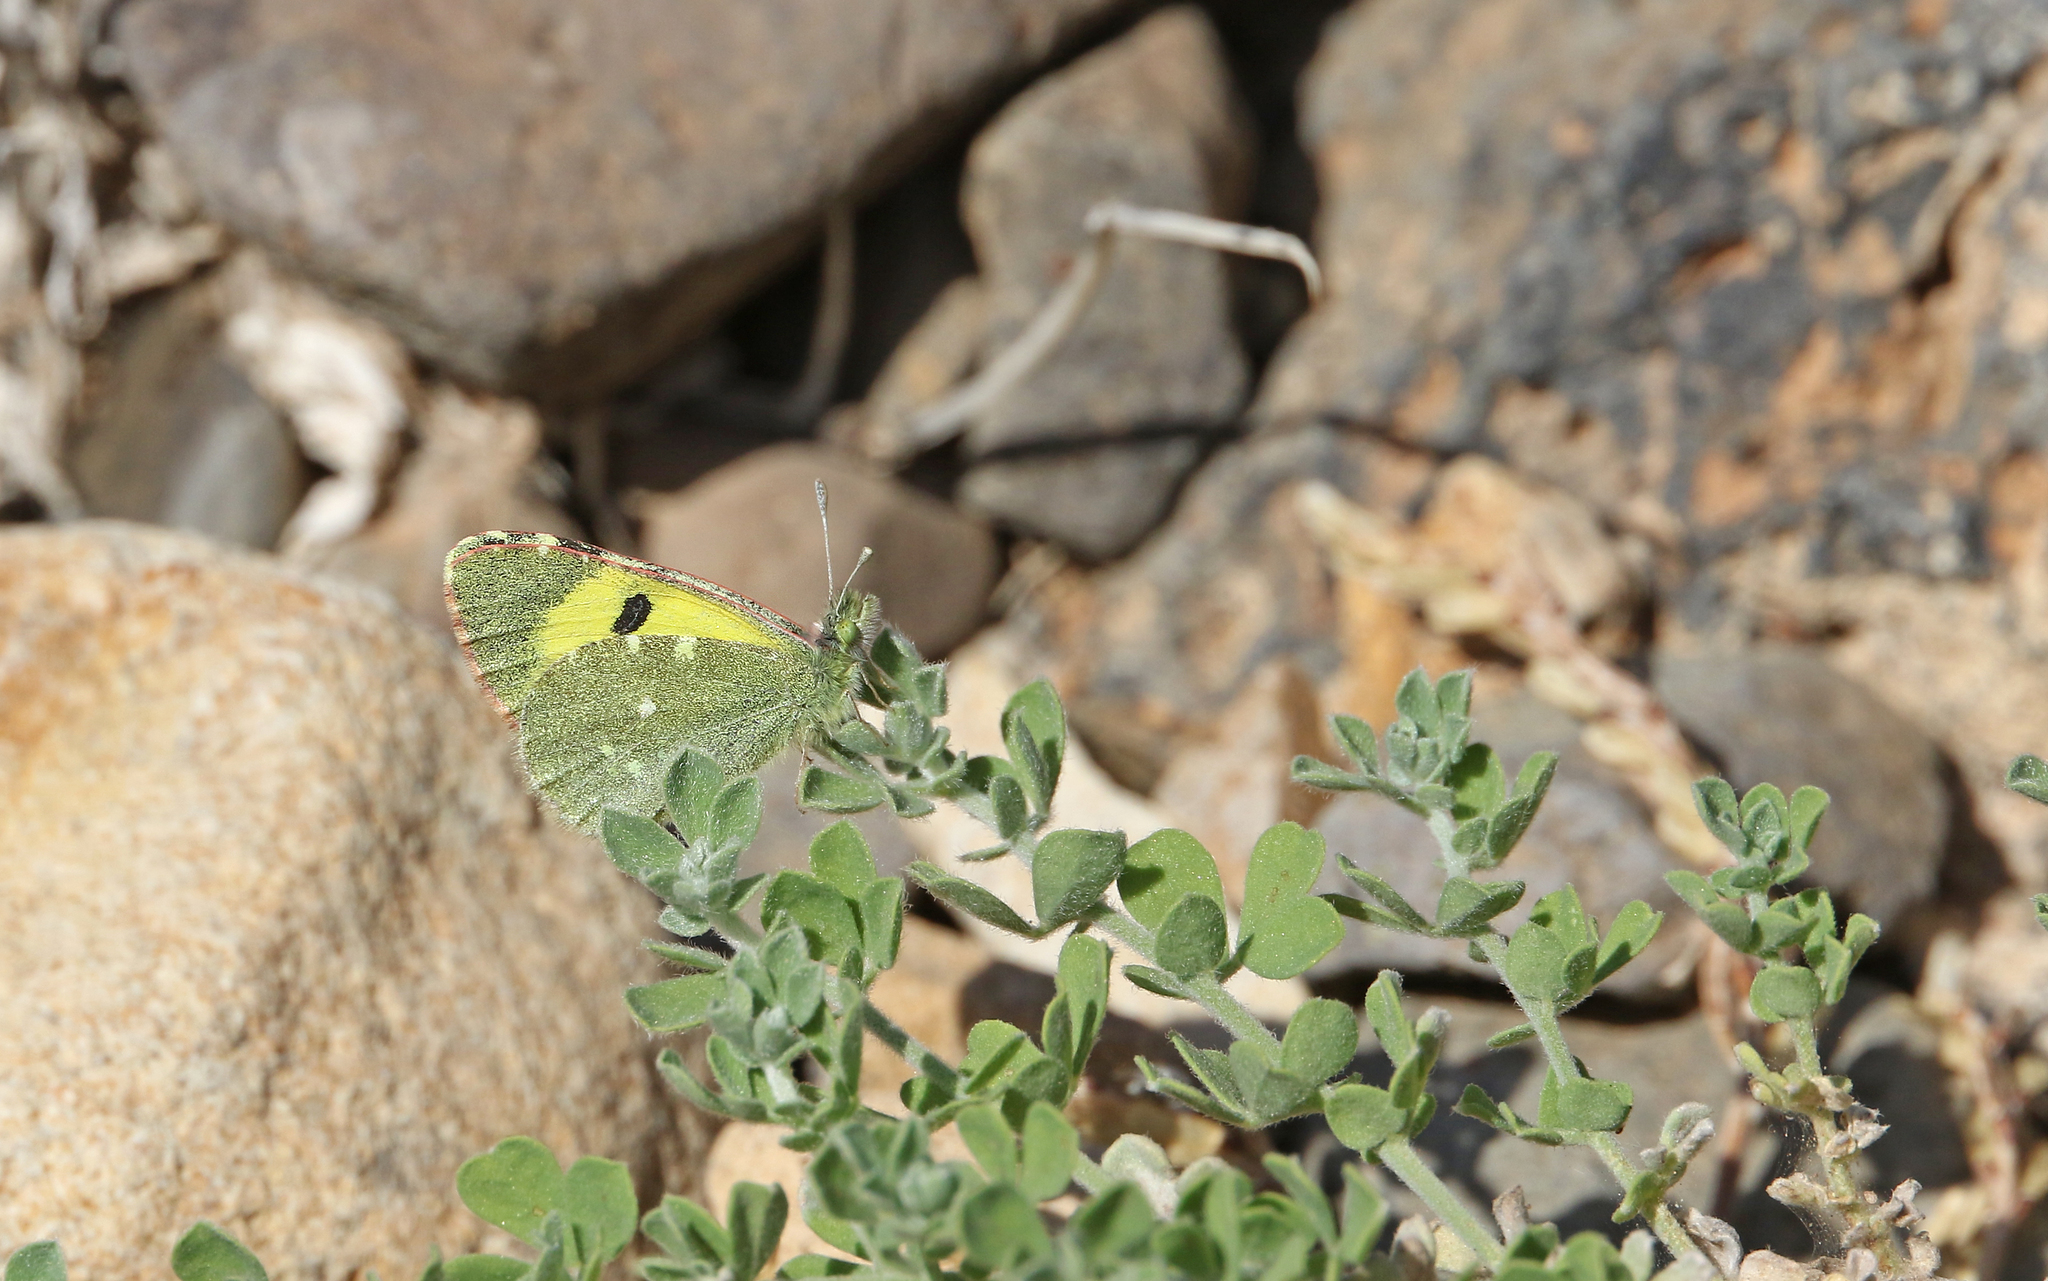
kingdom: Animalia
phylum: Arthropoda
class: Insecta
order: Lepidoptera
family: Pieridae
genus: Elphinstonia
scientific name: Elphinstonia charlonia
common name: Greenish black-tip
